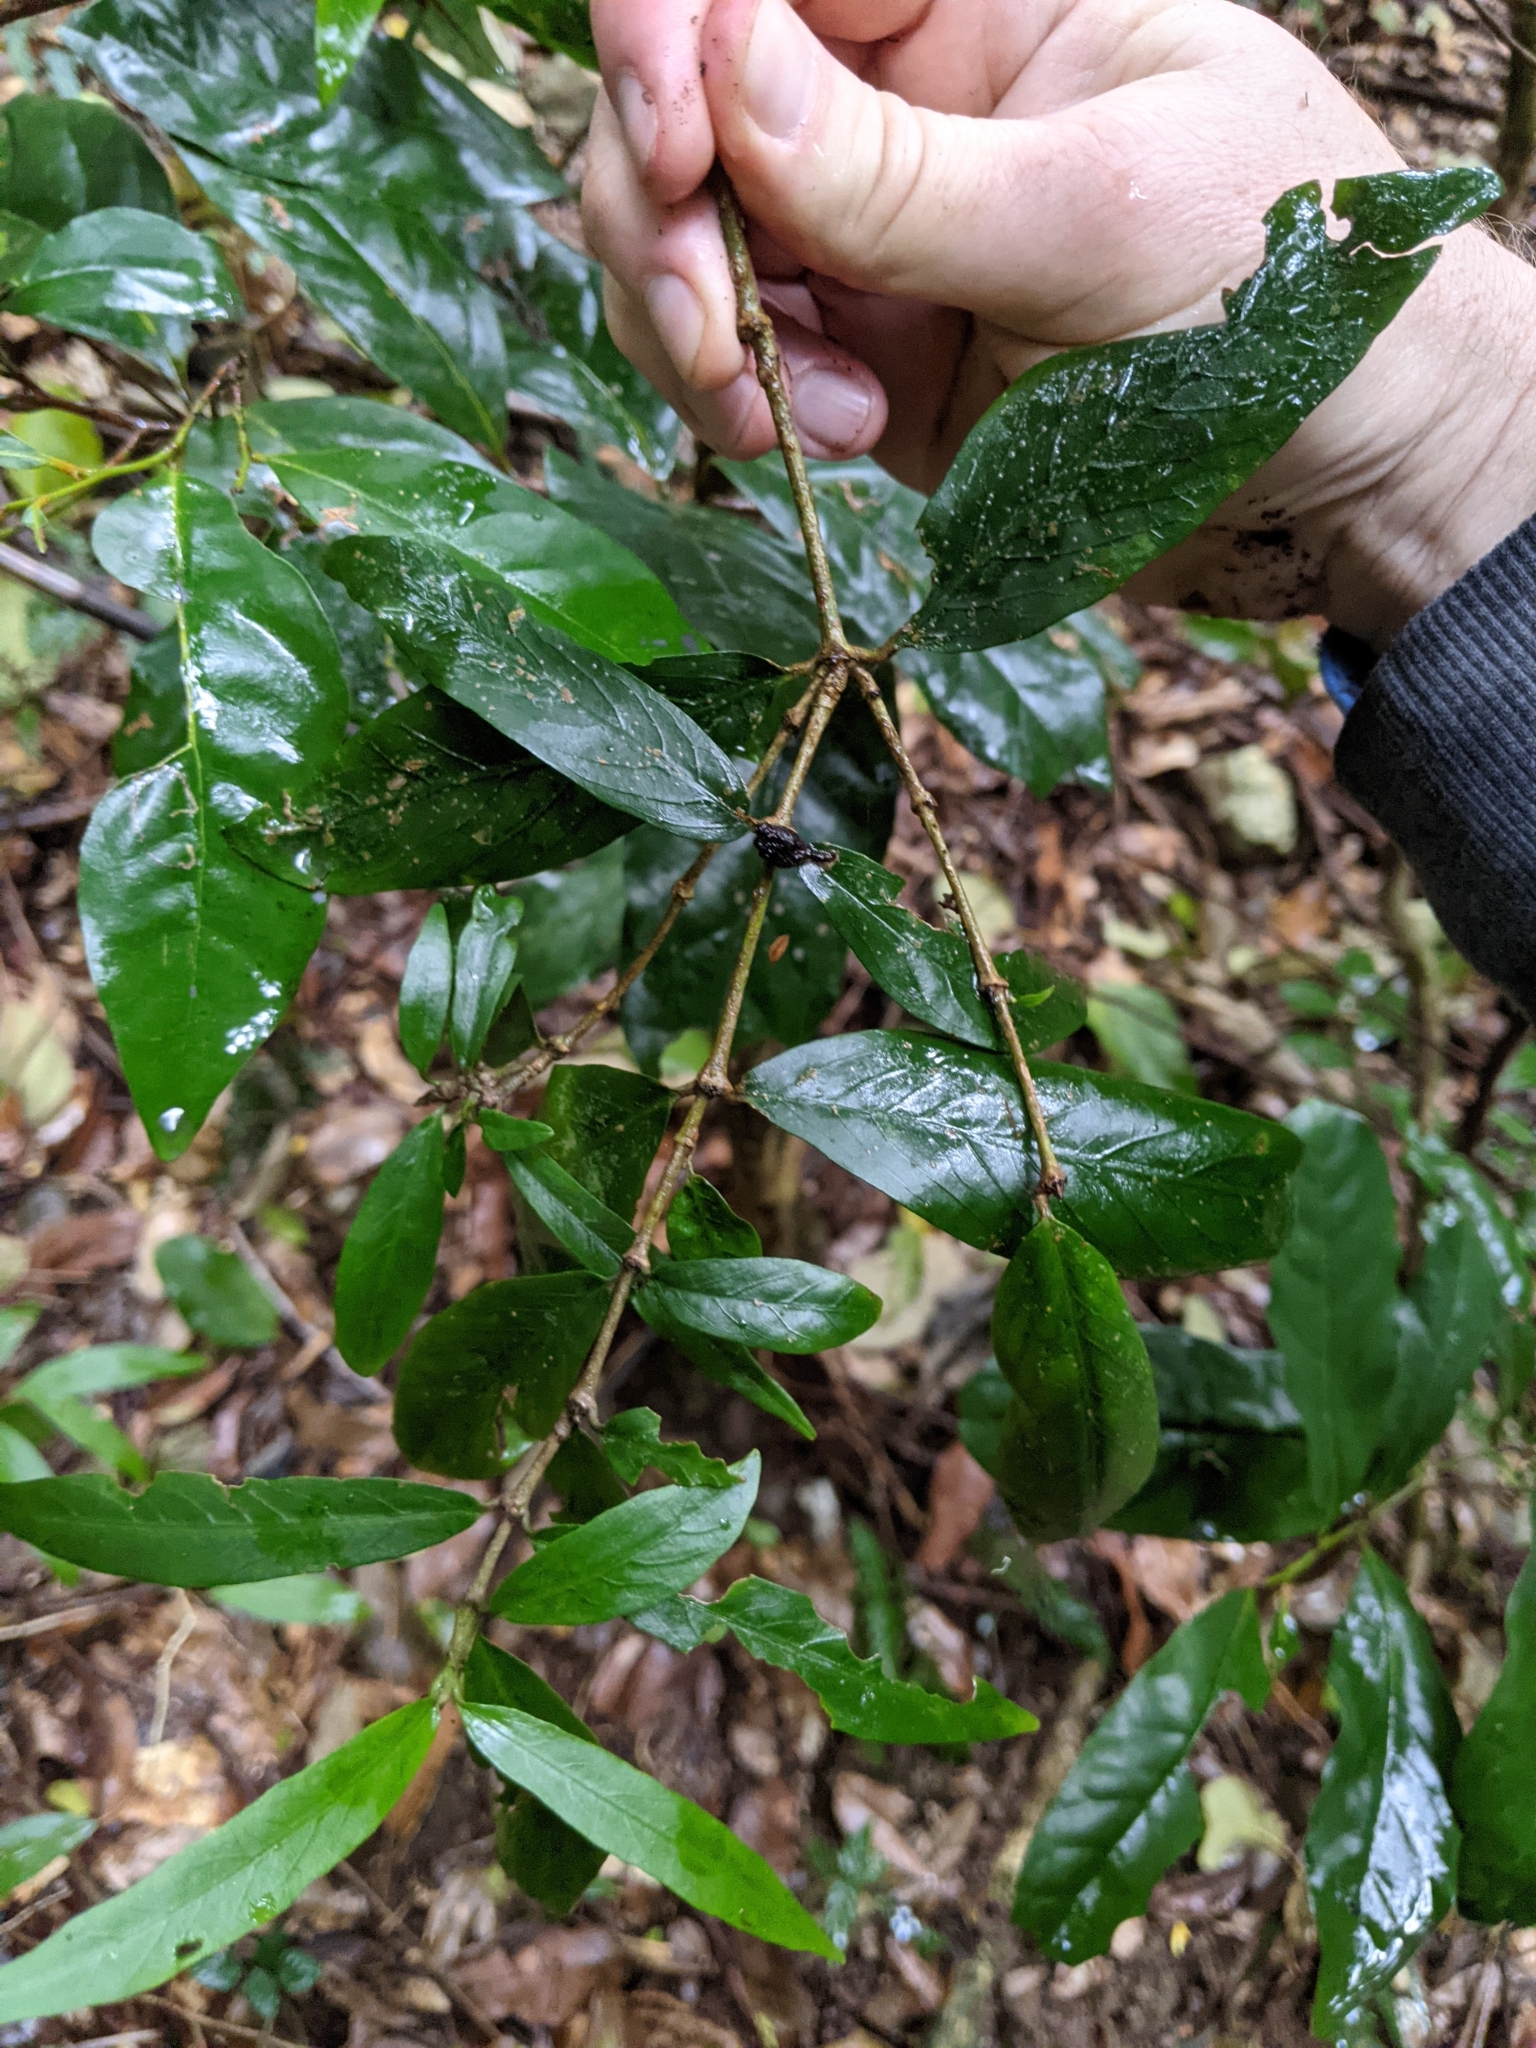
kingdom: Plantae
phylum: Tracheophyta
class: Magnoliopsida
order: Gentianales
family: Rubiaceae
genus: Atractocarpus
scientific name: Atractocarpus chartaceus
